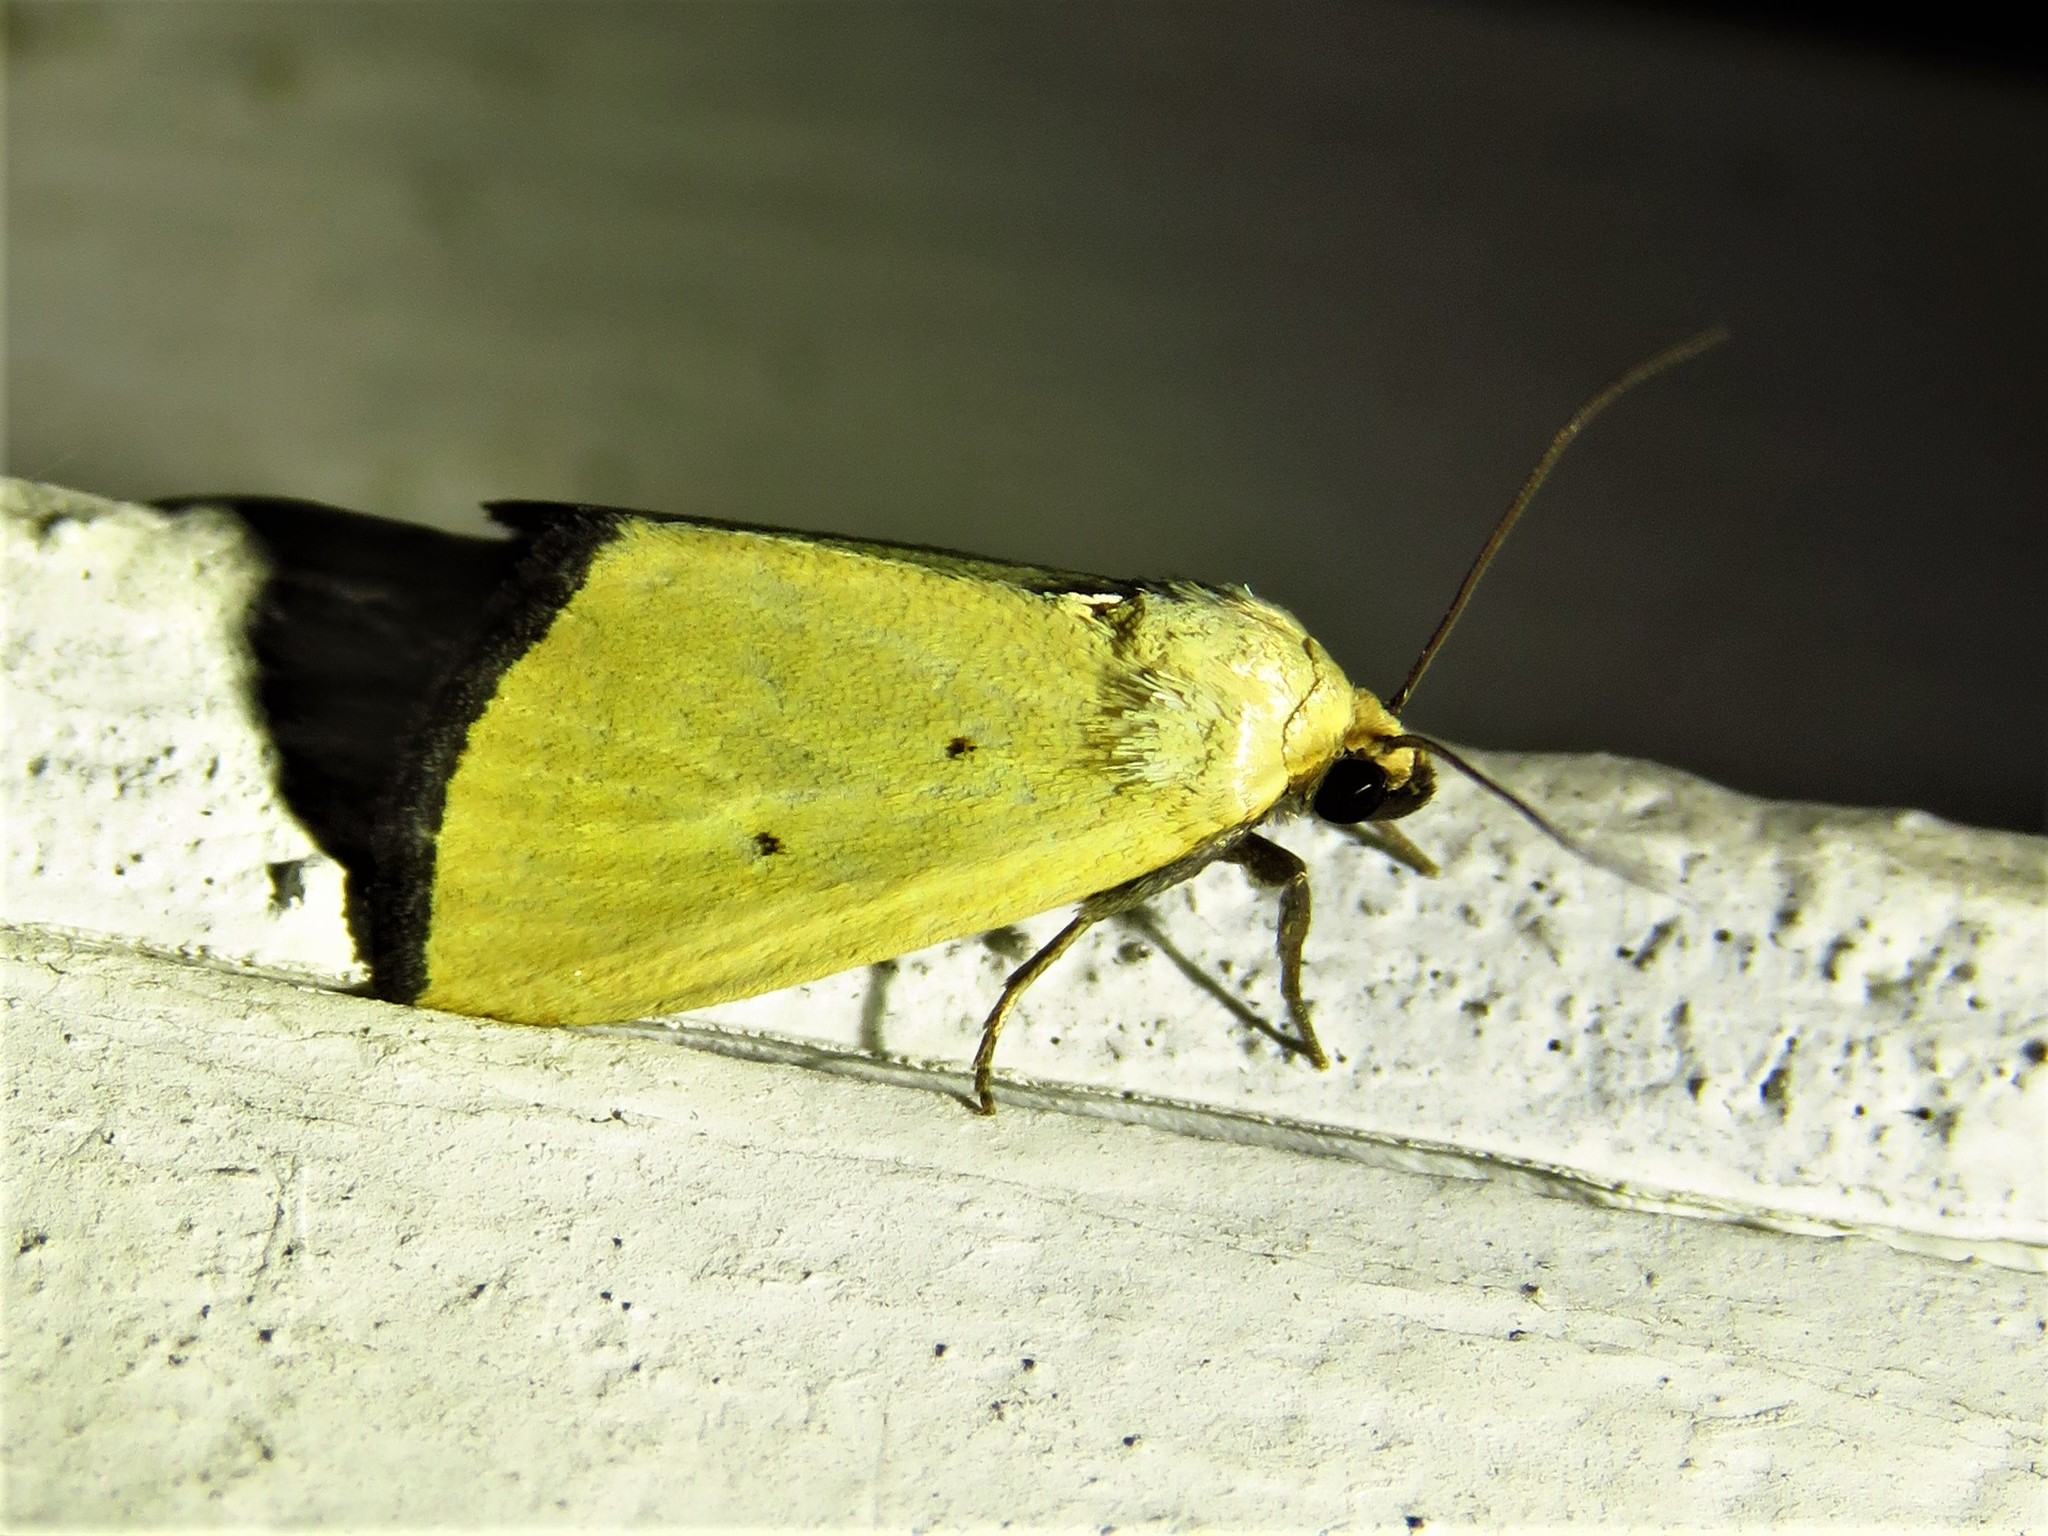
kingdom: Animalia
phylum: Arthropoda
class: Insecta
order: Lepidoptera
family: Noctuidae
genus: Marimatha
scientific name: Marimatha nigrofimbria
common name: Black-bordered lemon moth
